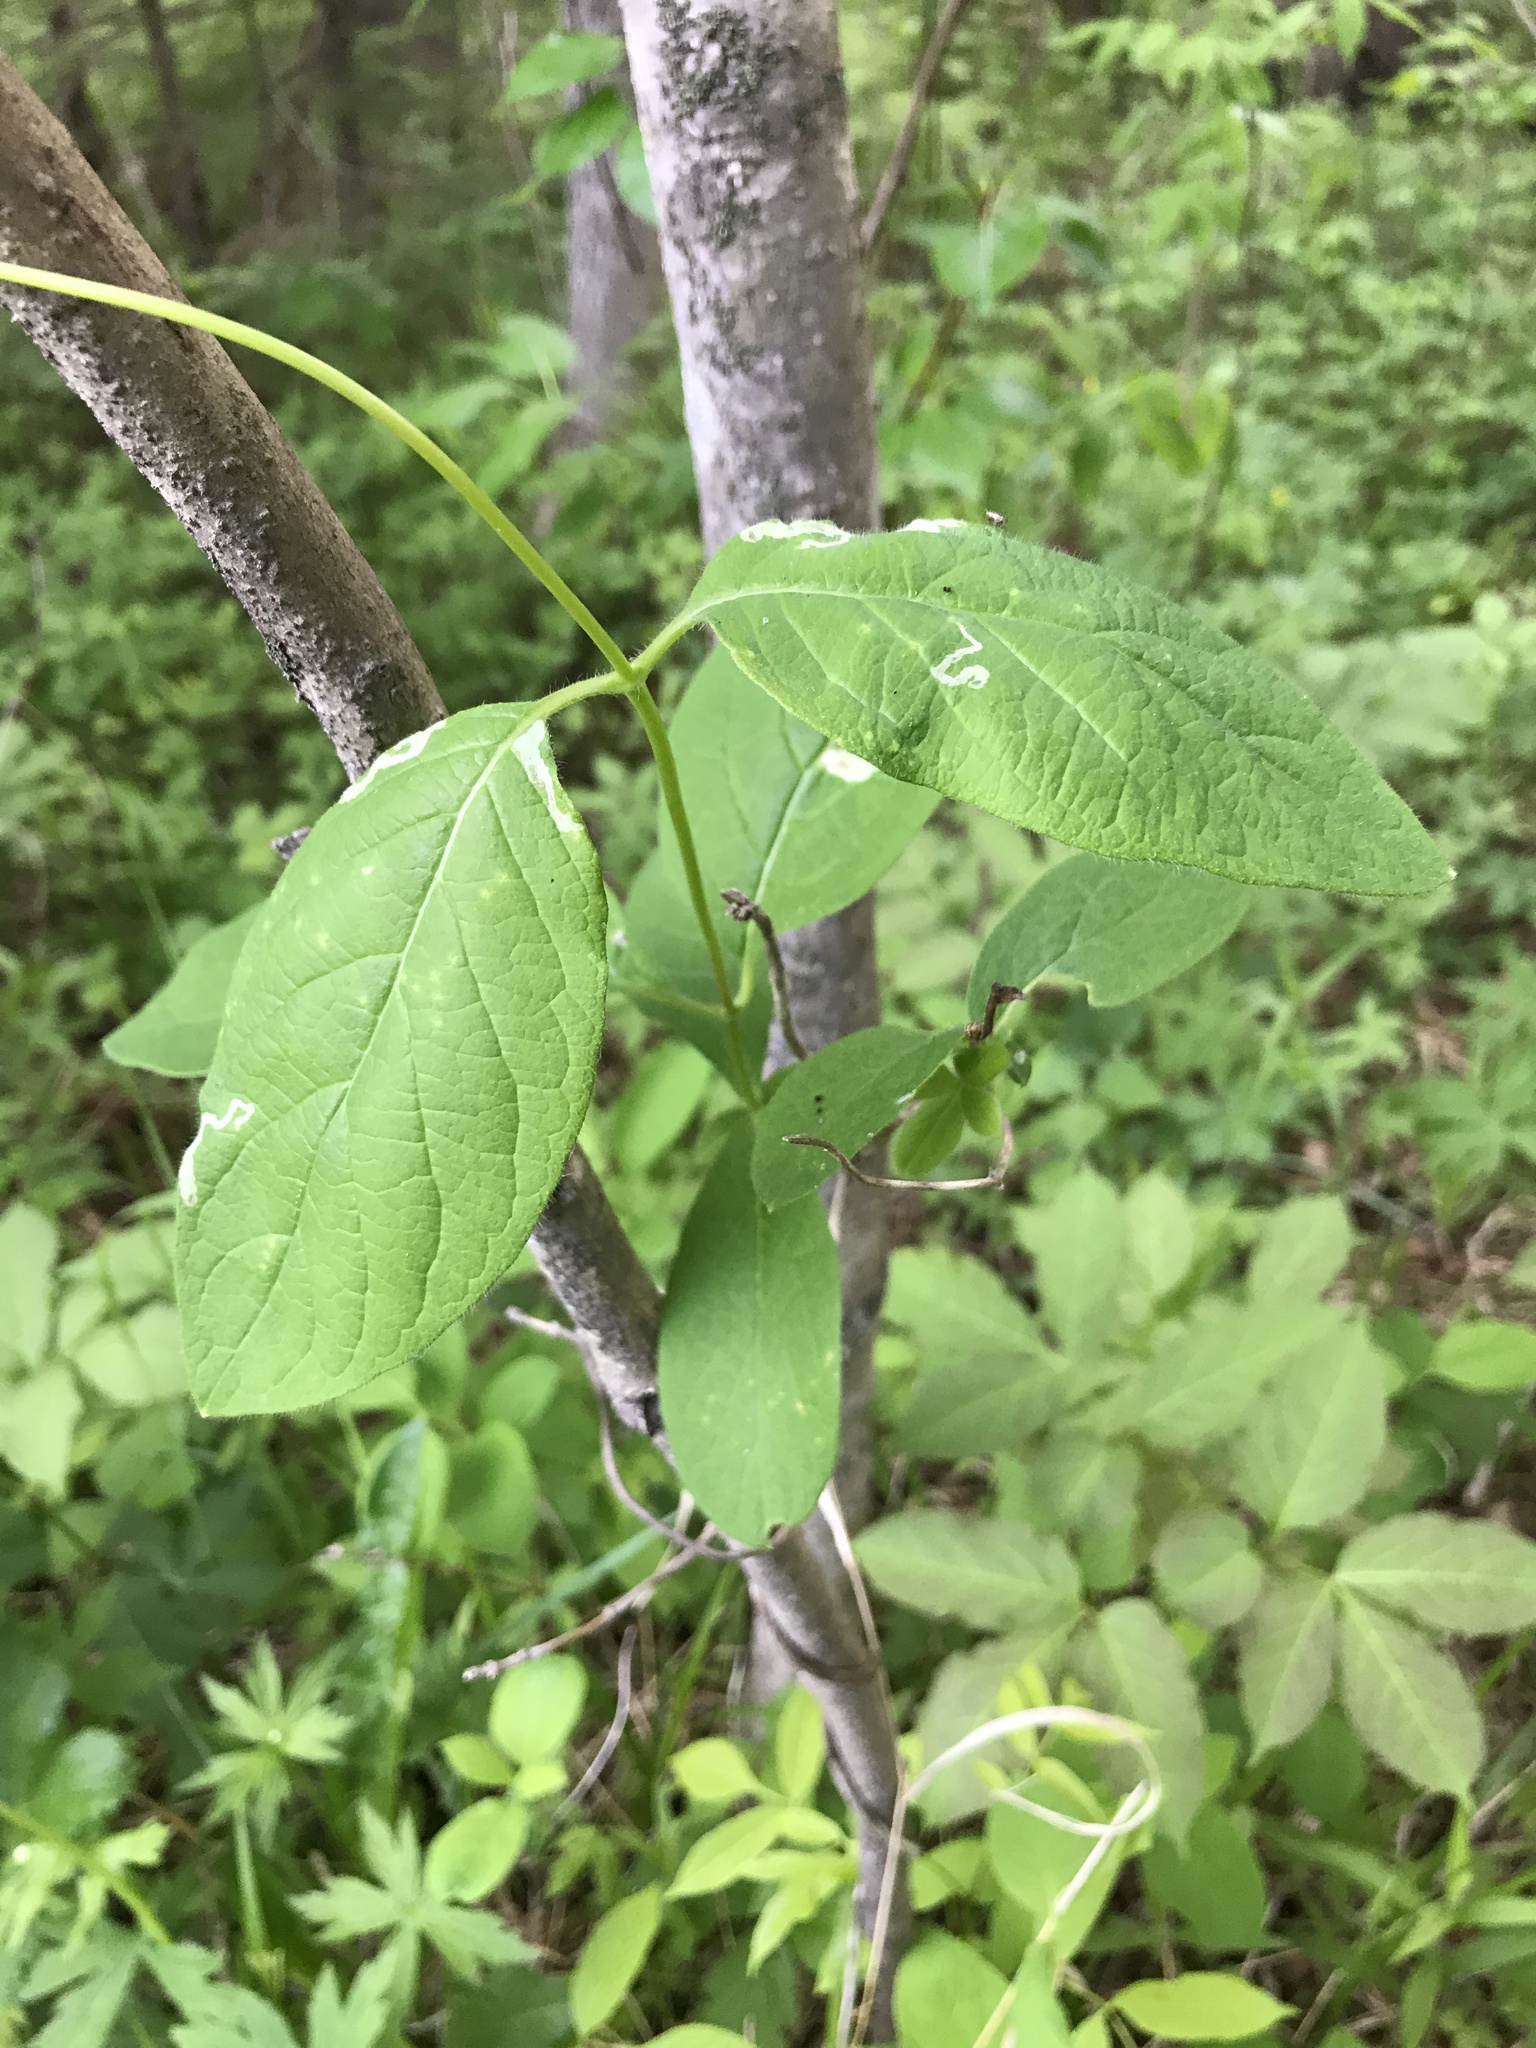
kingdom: Plantae
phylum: Tracheophyta
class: Magnoliopsida
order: Dipsacales
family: Caprifoliaceae
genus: Lonicera
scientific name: Lonicera hirsuta
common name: Hairy honeysuckle
